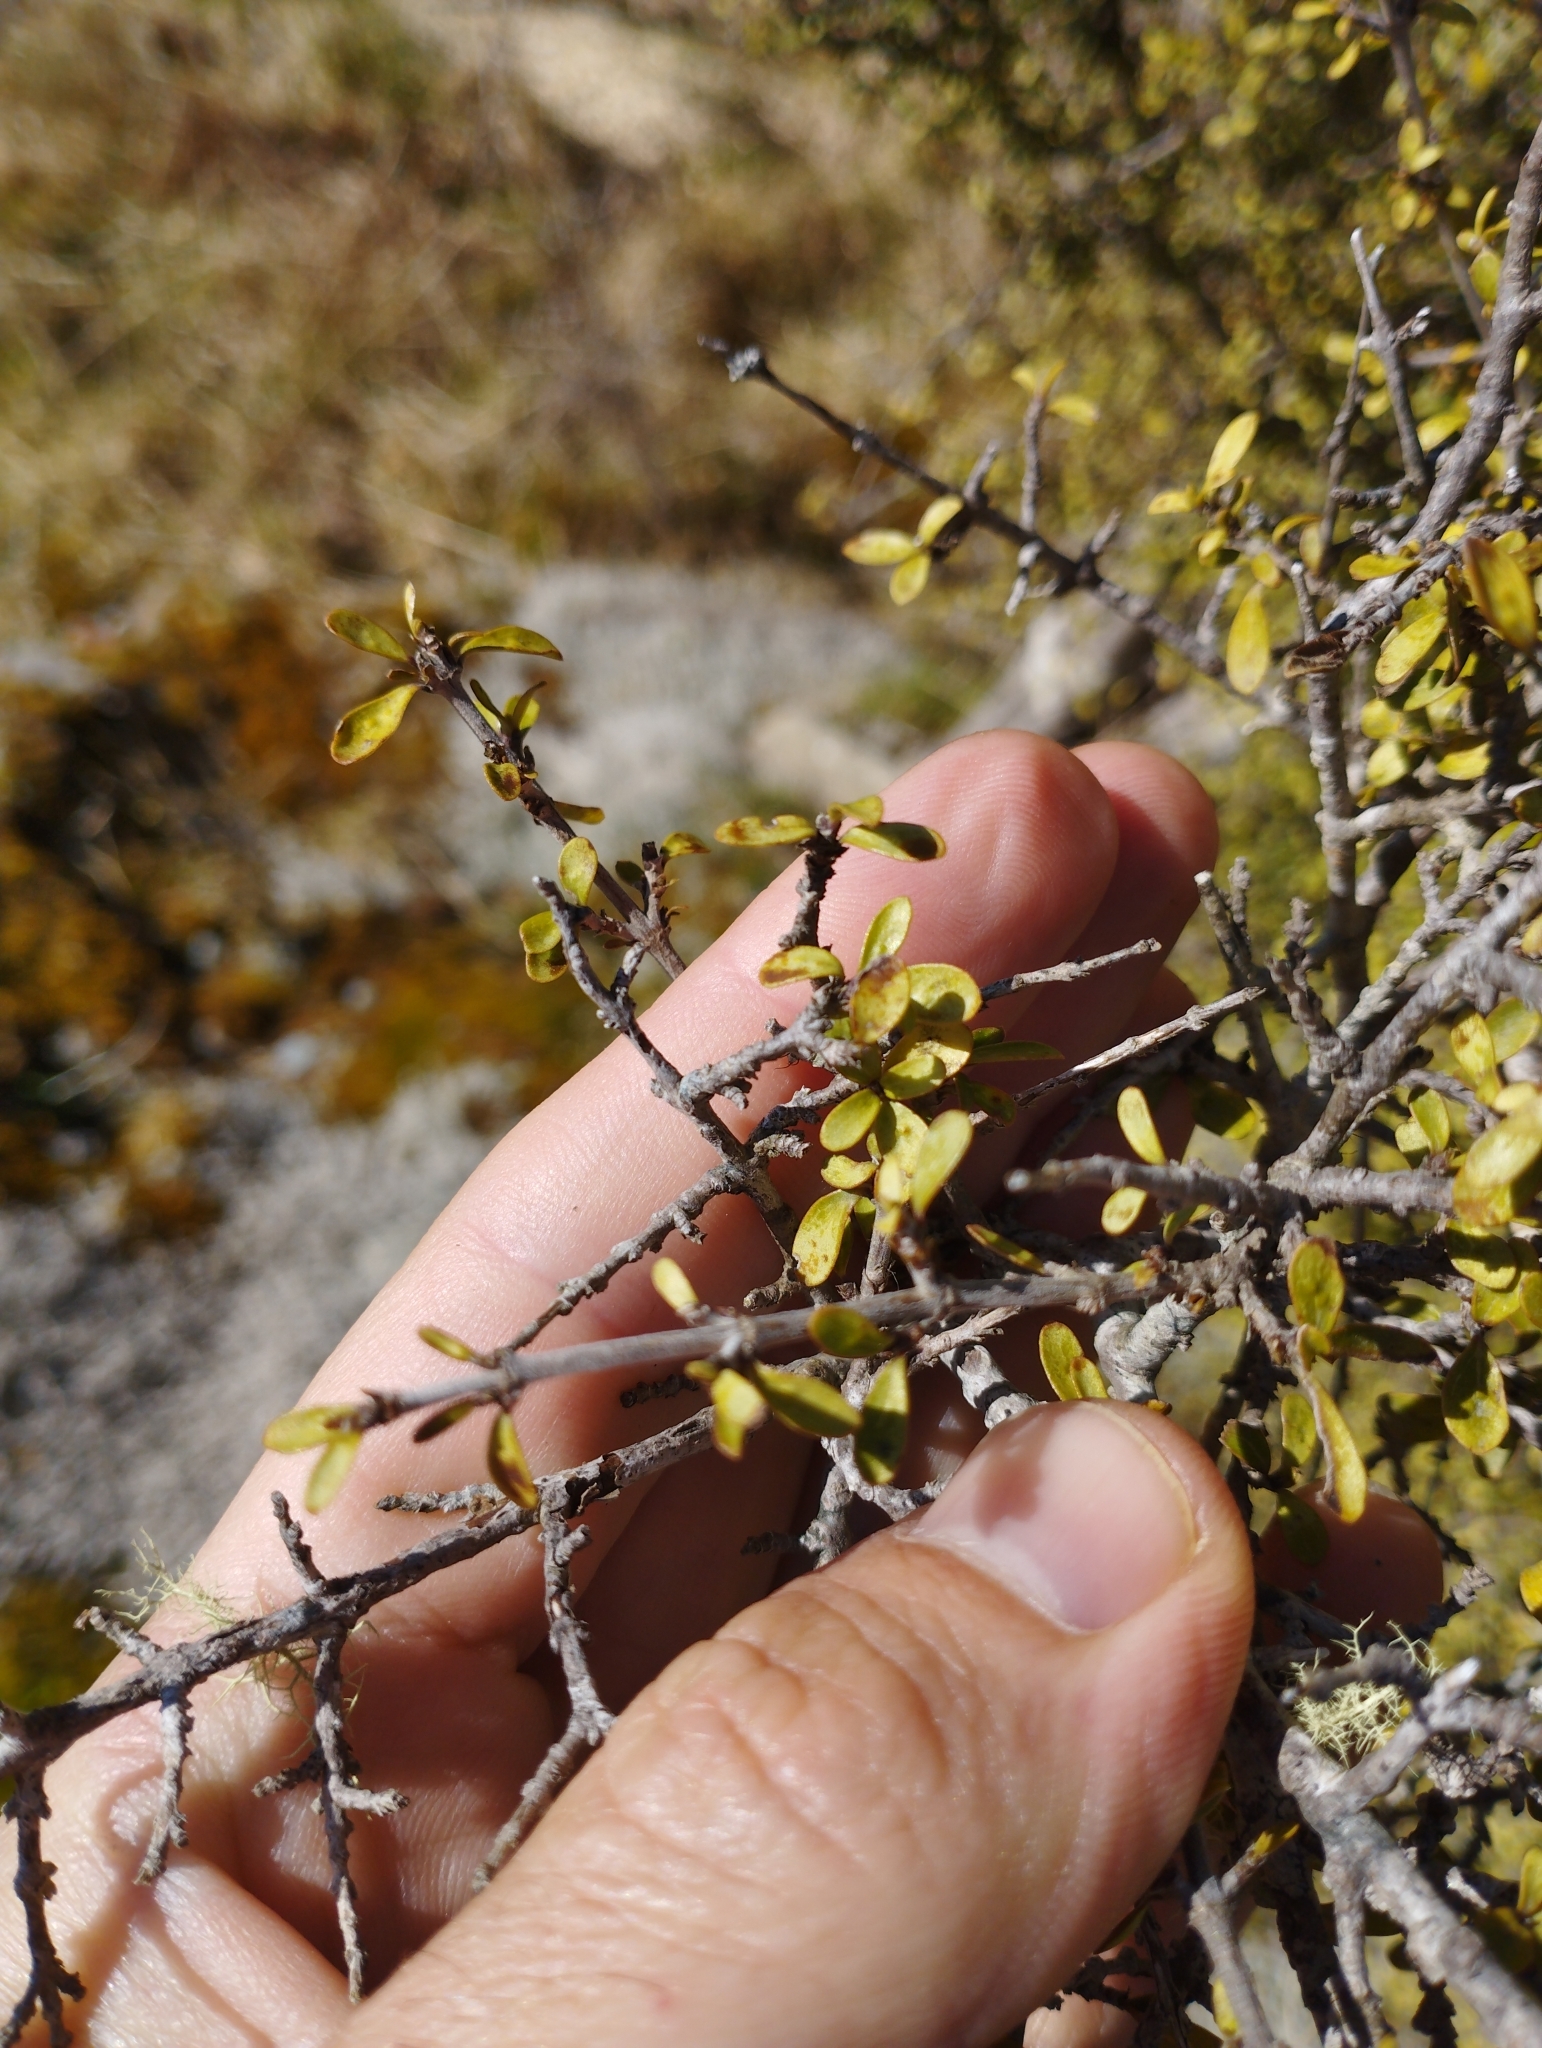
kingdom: Plantae
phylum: Tracheophyta
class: Magnoliopsida
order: Gentianales
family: Rubiaceae
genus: Coprosma
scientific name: Coprosma dumosa
